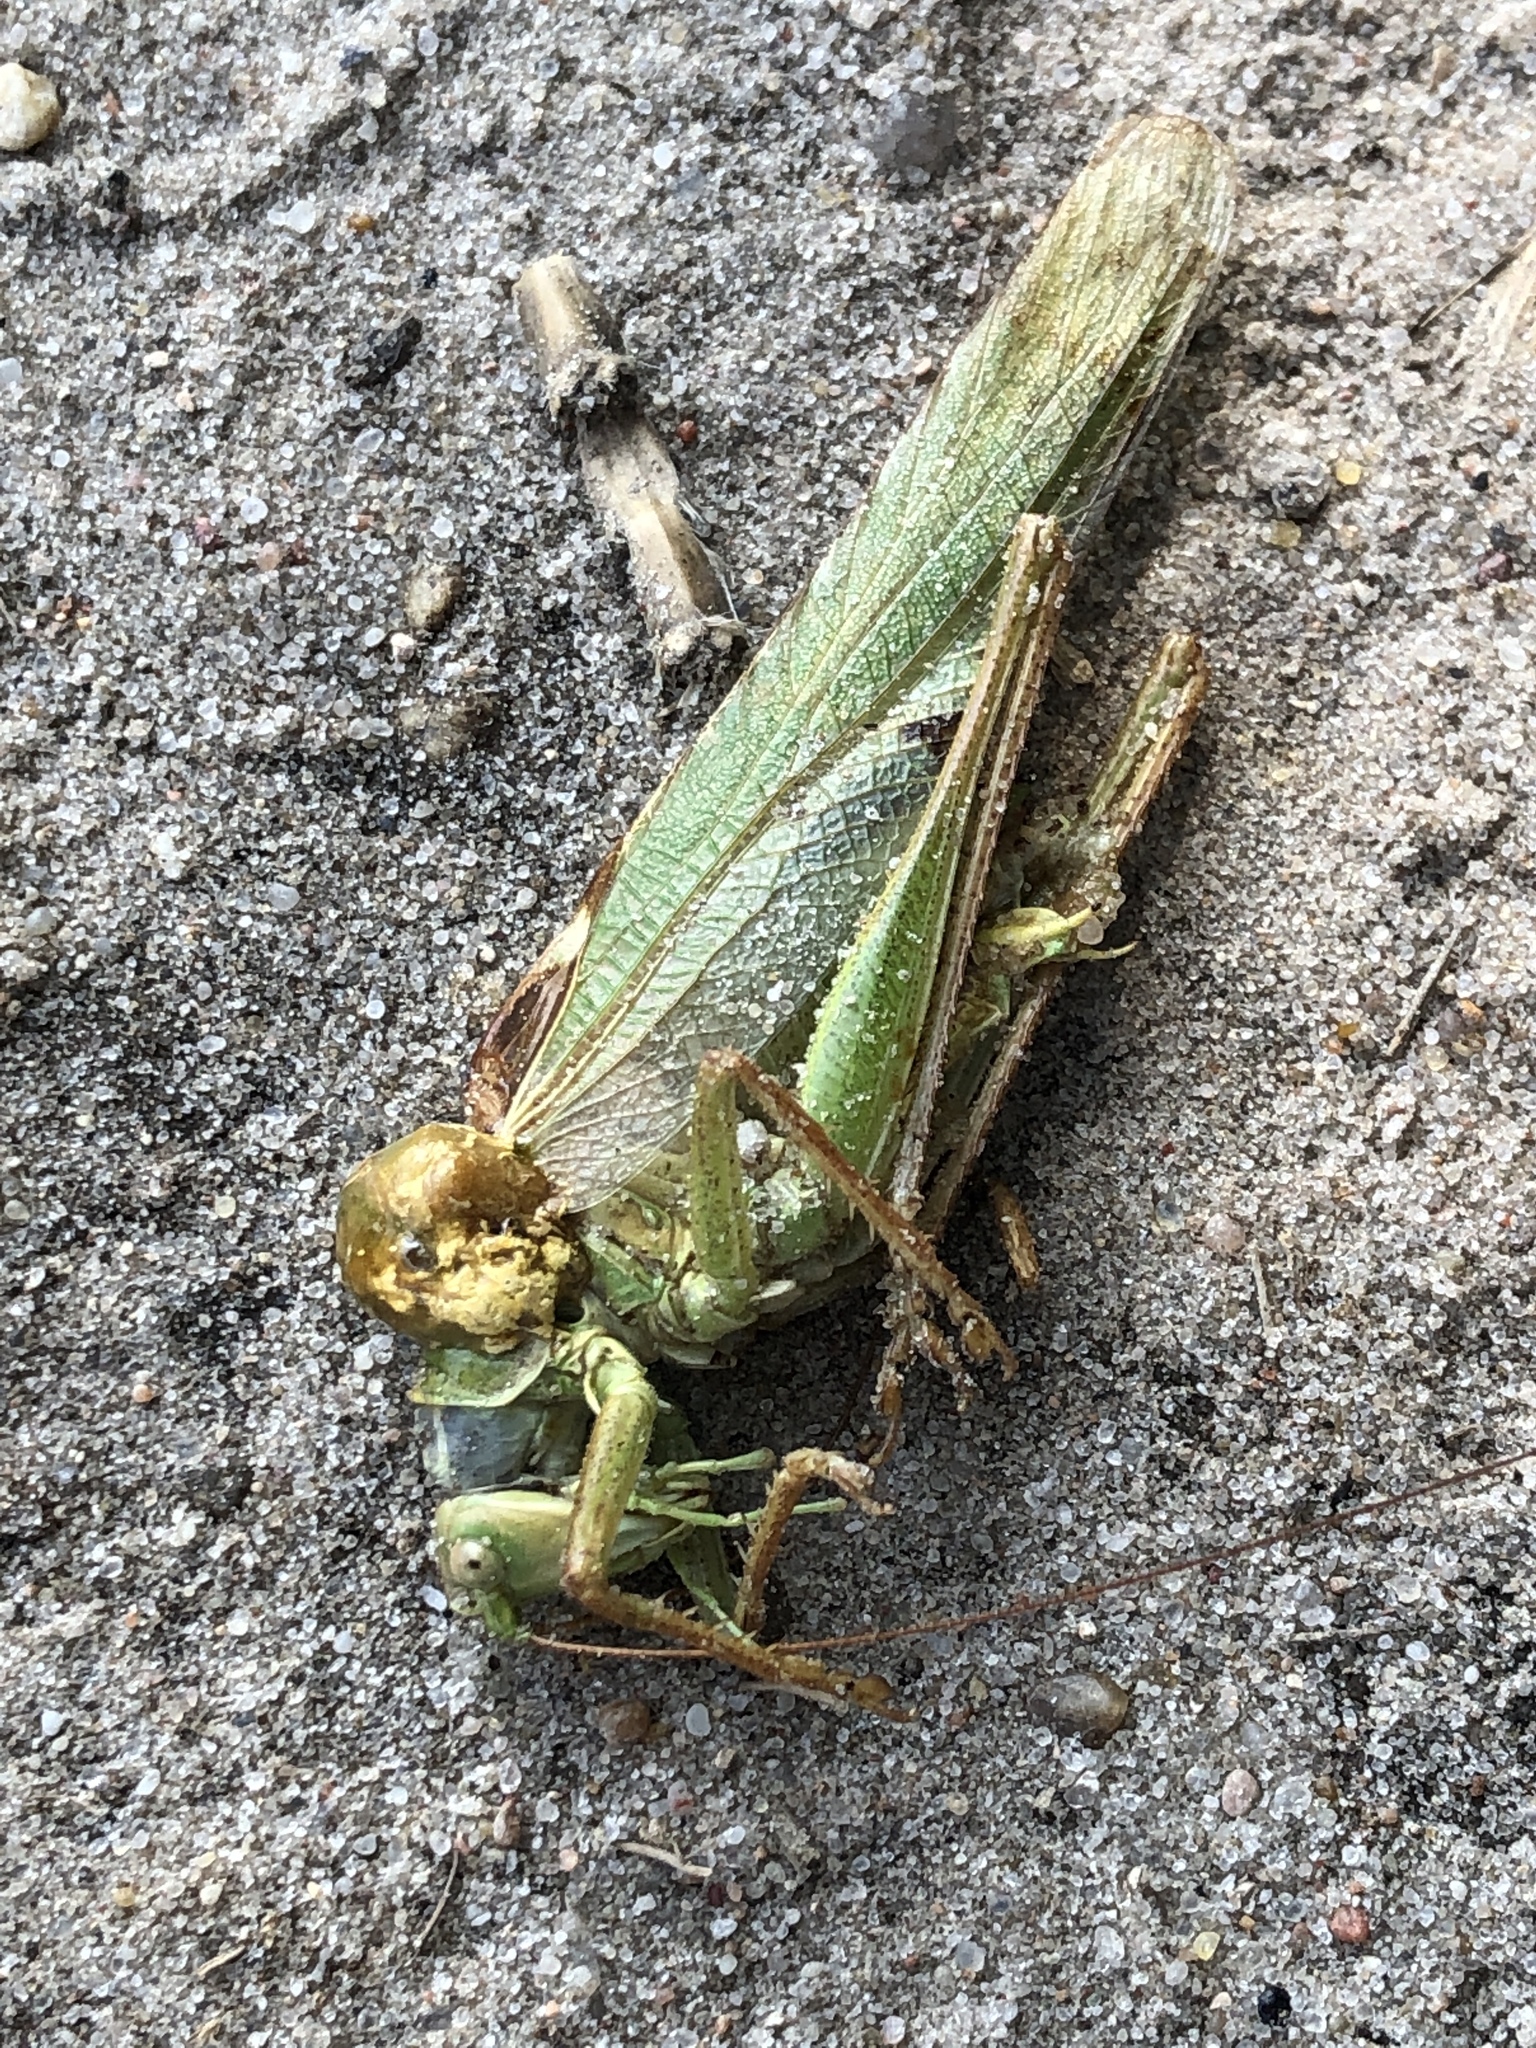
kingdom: Animalia
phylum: Arthropoda
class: Insecta
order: Orthoptera
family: Tettigoniidae
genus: Tettigonia
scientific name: Tettigonia viridissima
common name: Great green bush-cricket
